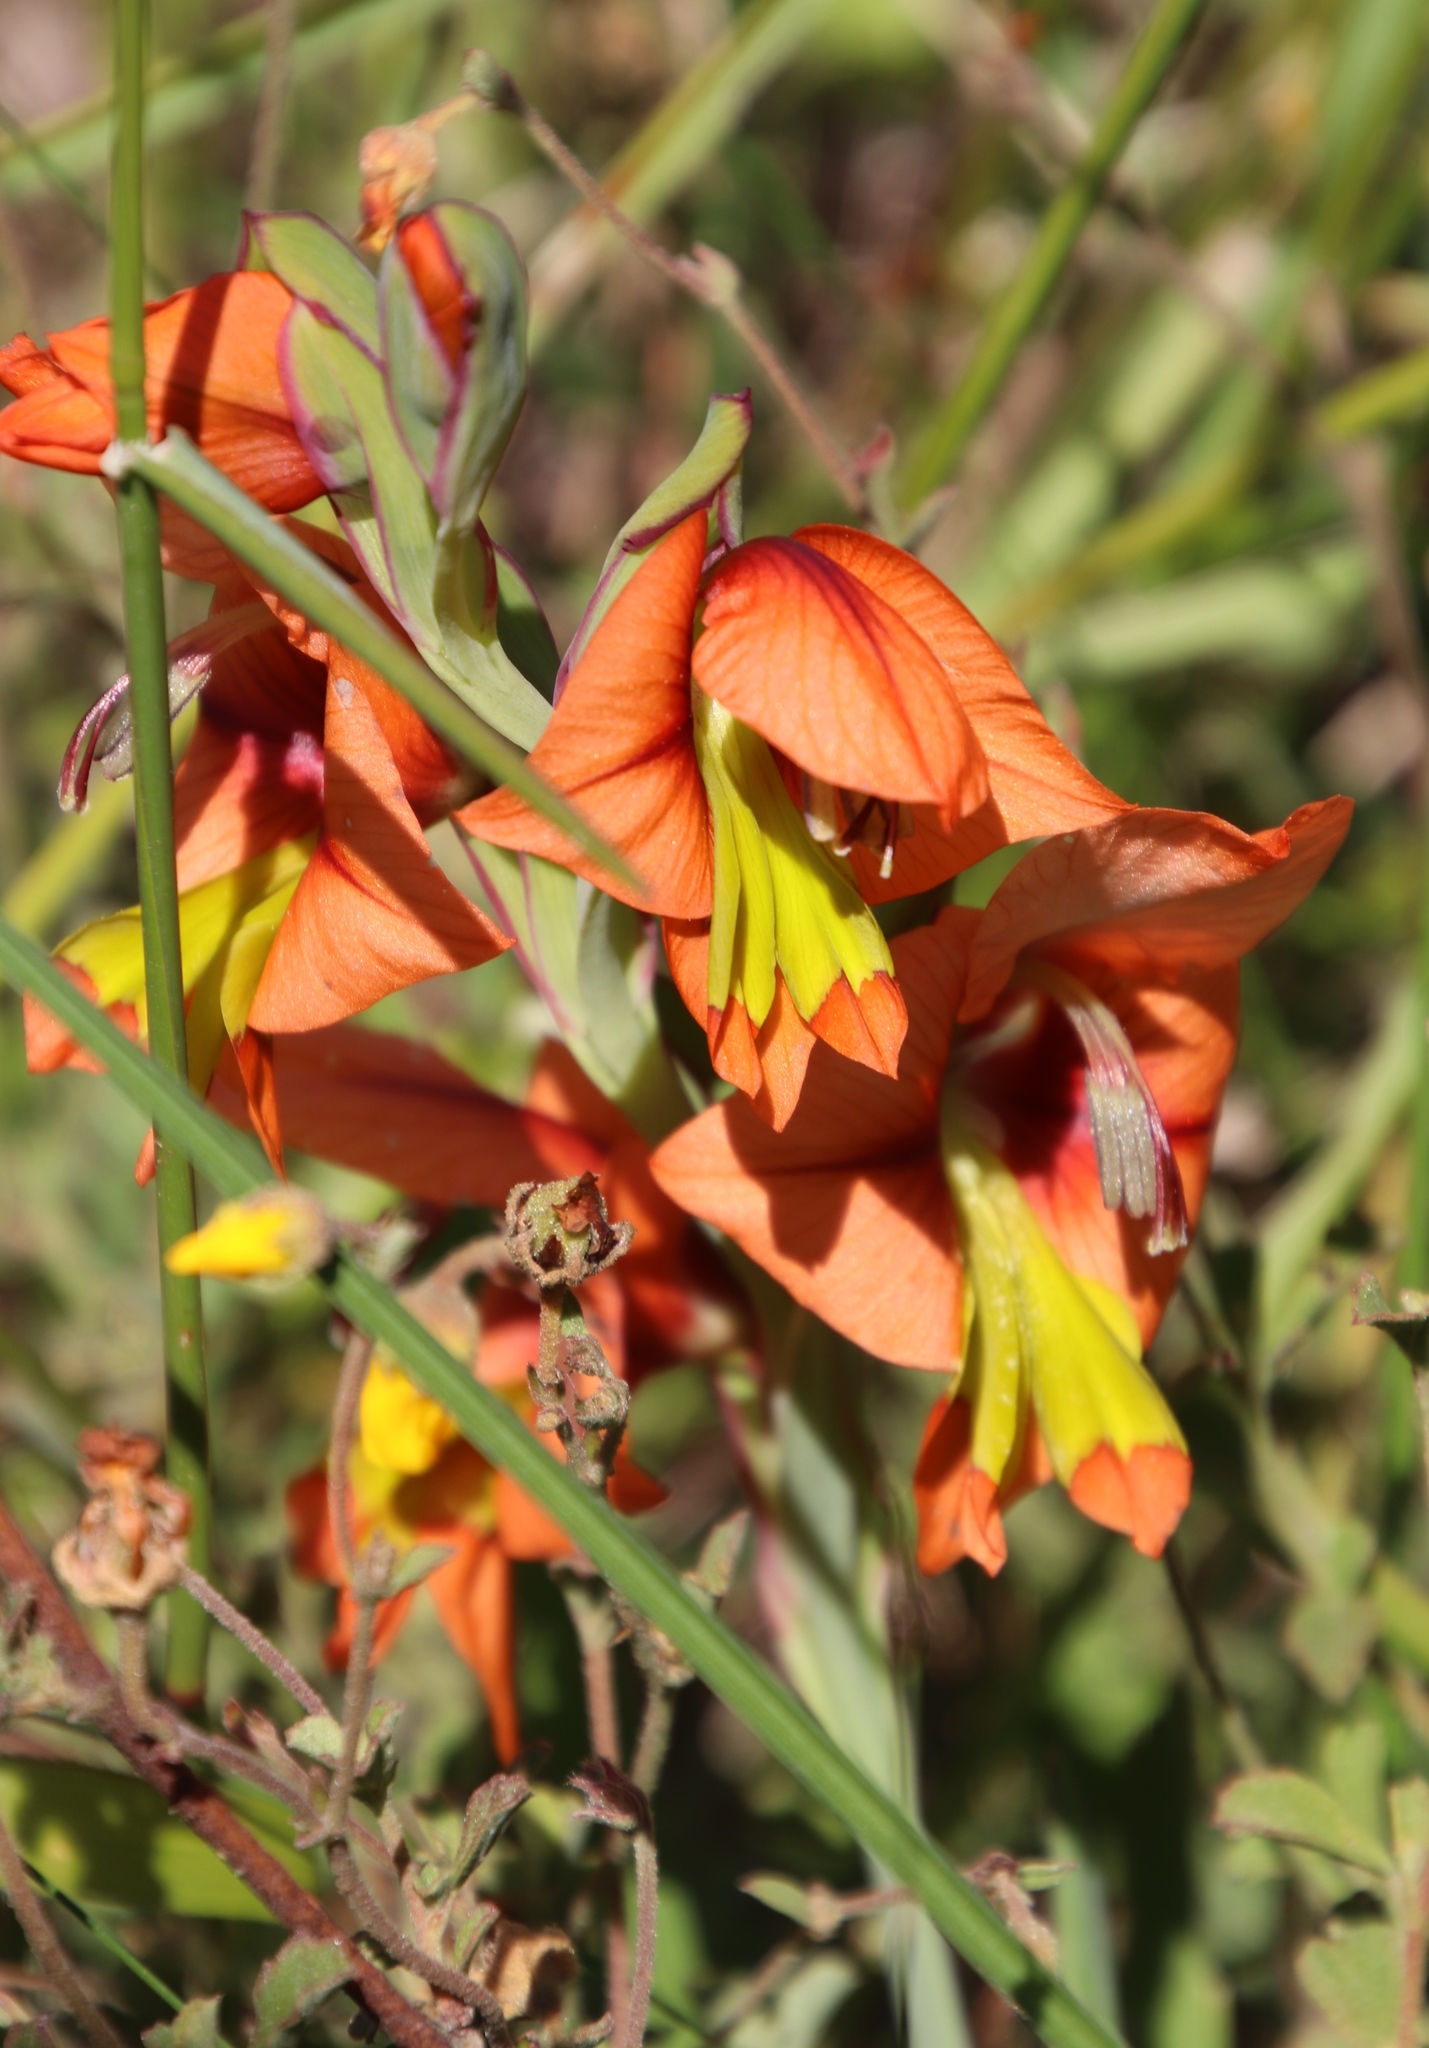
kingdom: Plantae
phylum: Tracheophyta
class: Liliopsida
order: Asparagales
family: Iridaceae
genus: Gladiolus
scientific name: Gladiolus alatus
